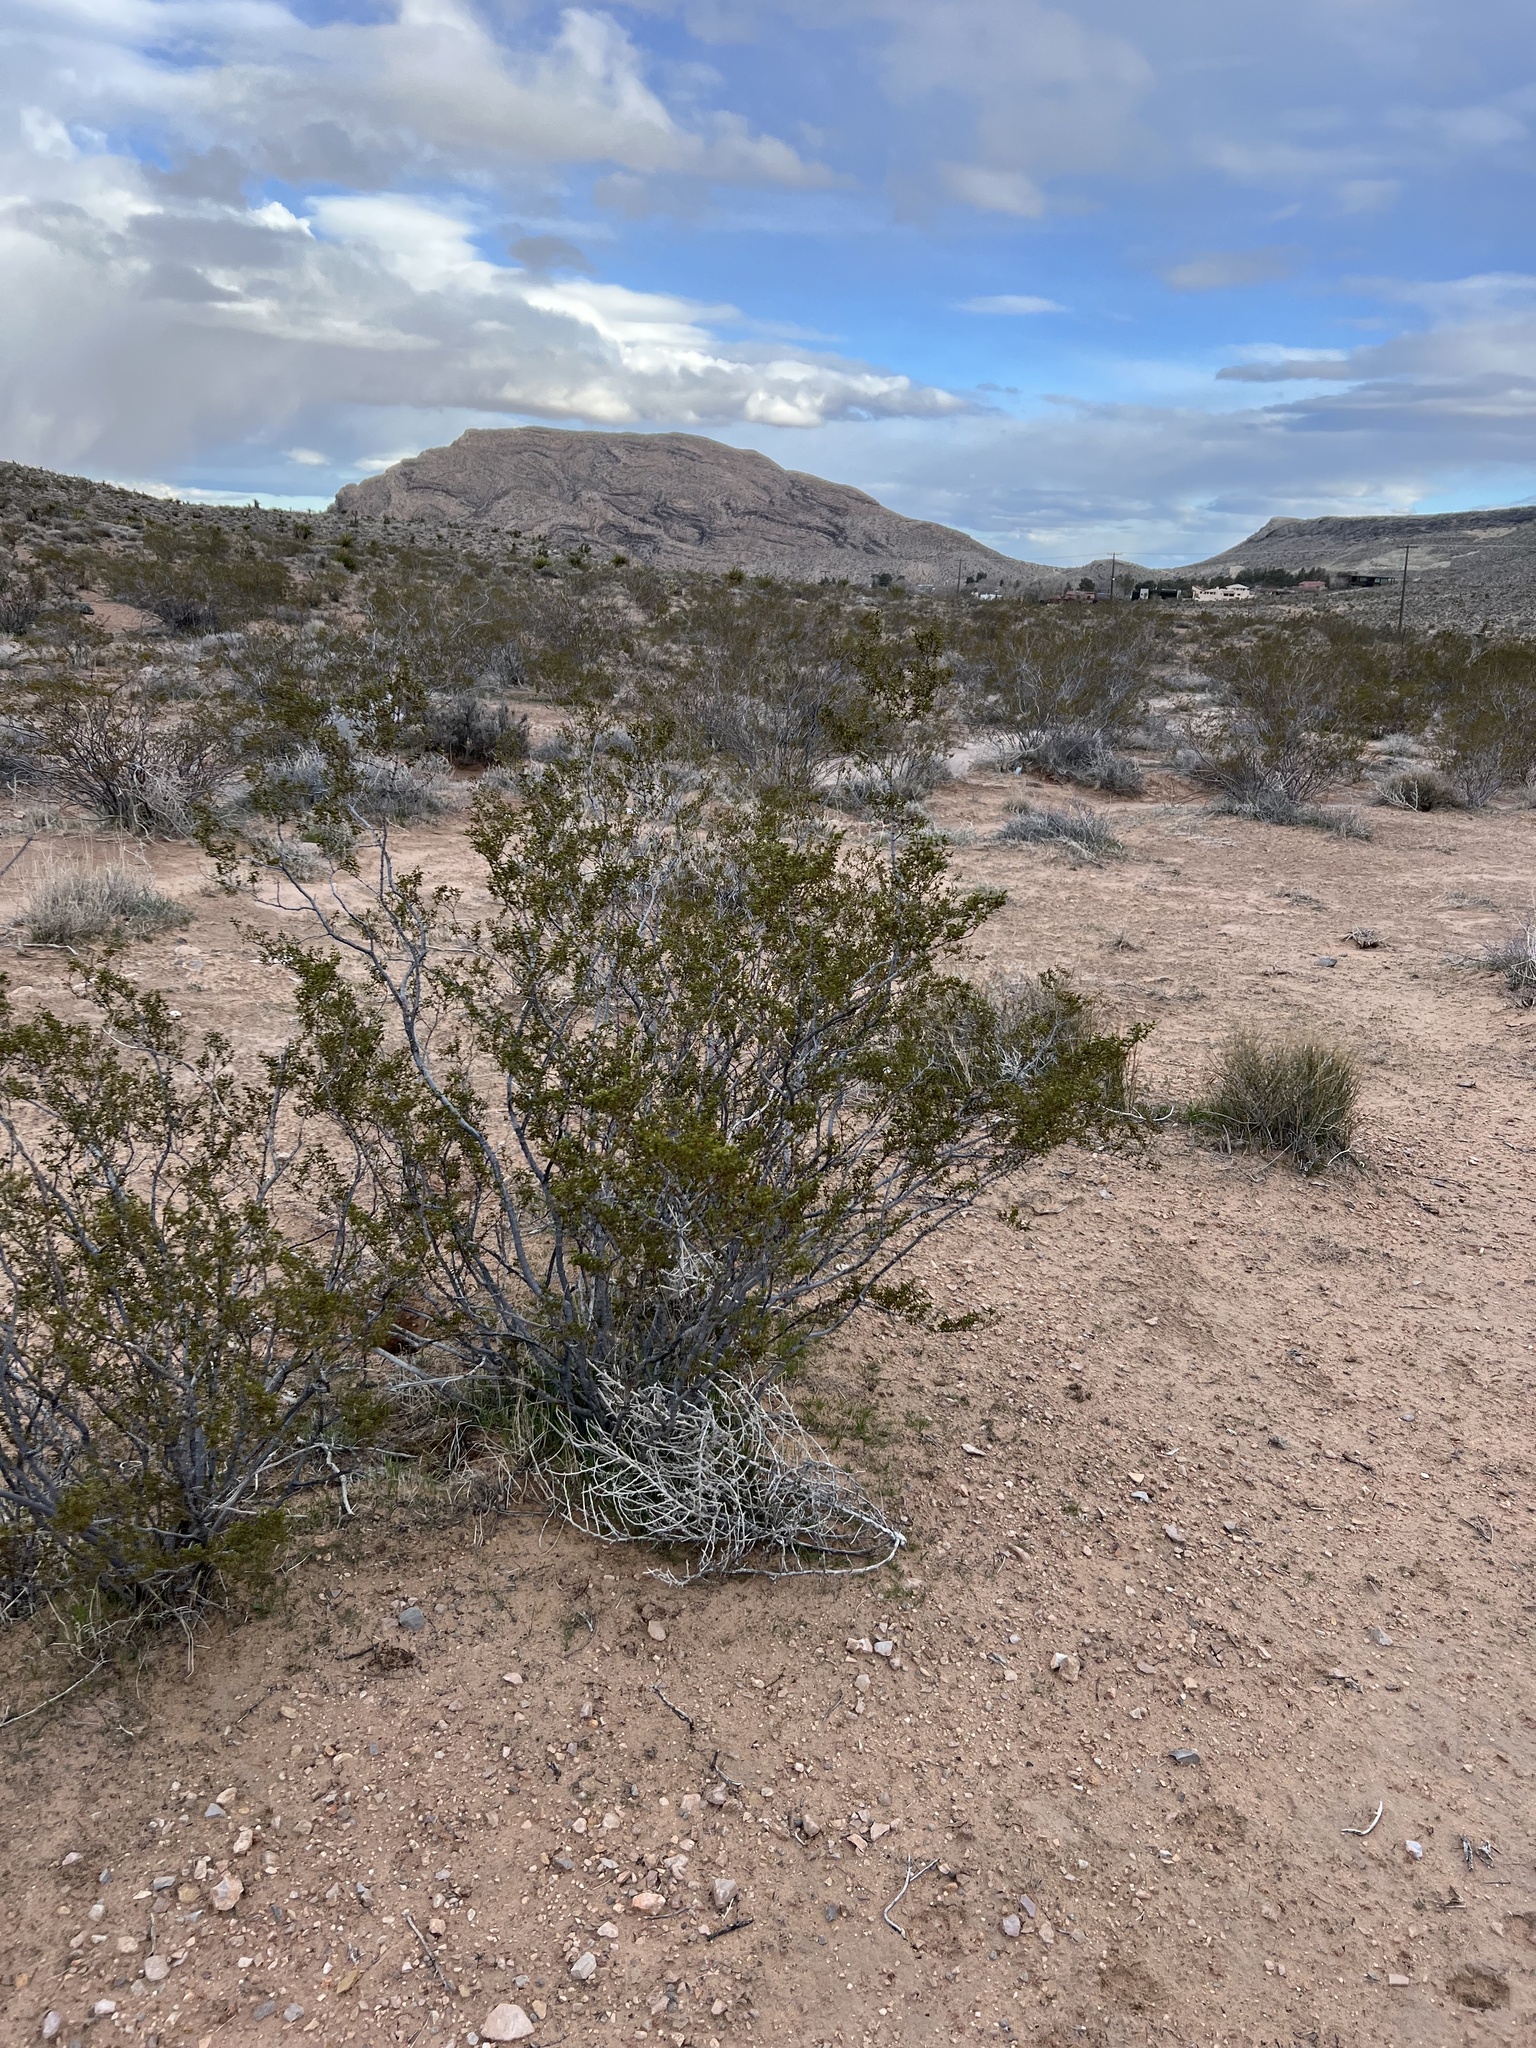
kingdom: Plantae
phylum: Tracheophyta
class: Magnoliopsida
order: Zygophyllales
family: Zygophyllaceae
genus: Larrea
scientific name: Larrea tridentata
